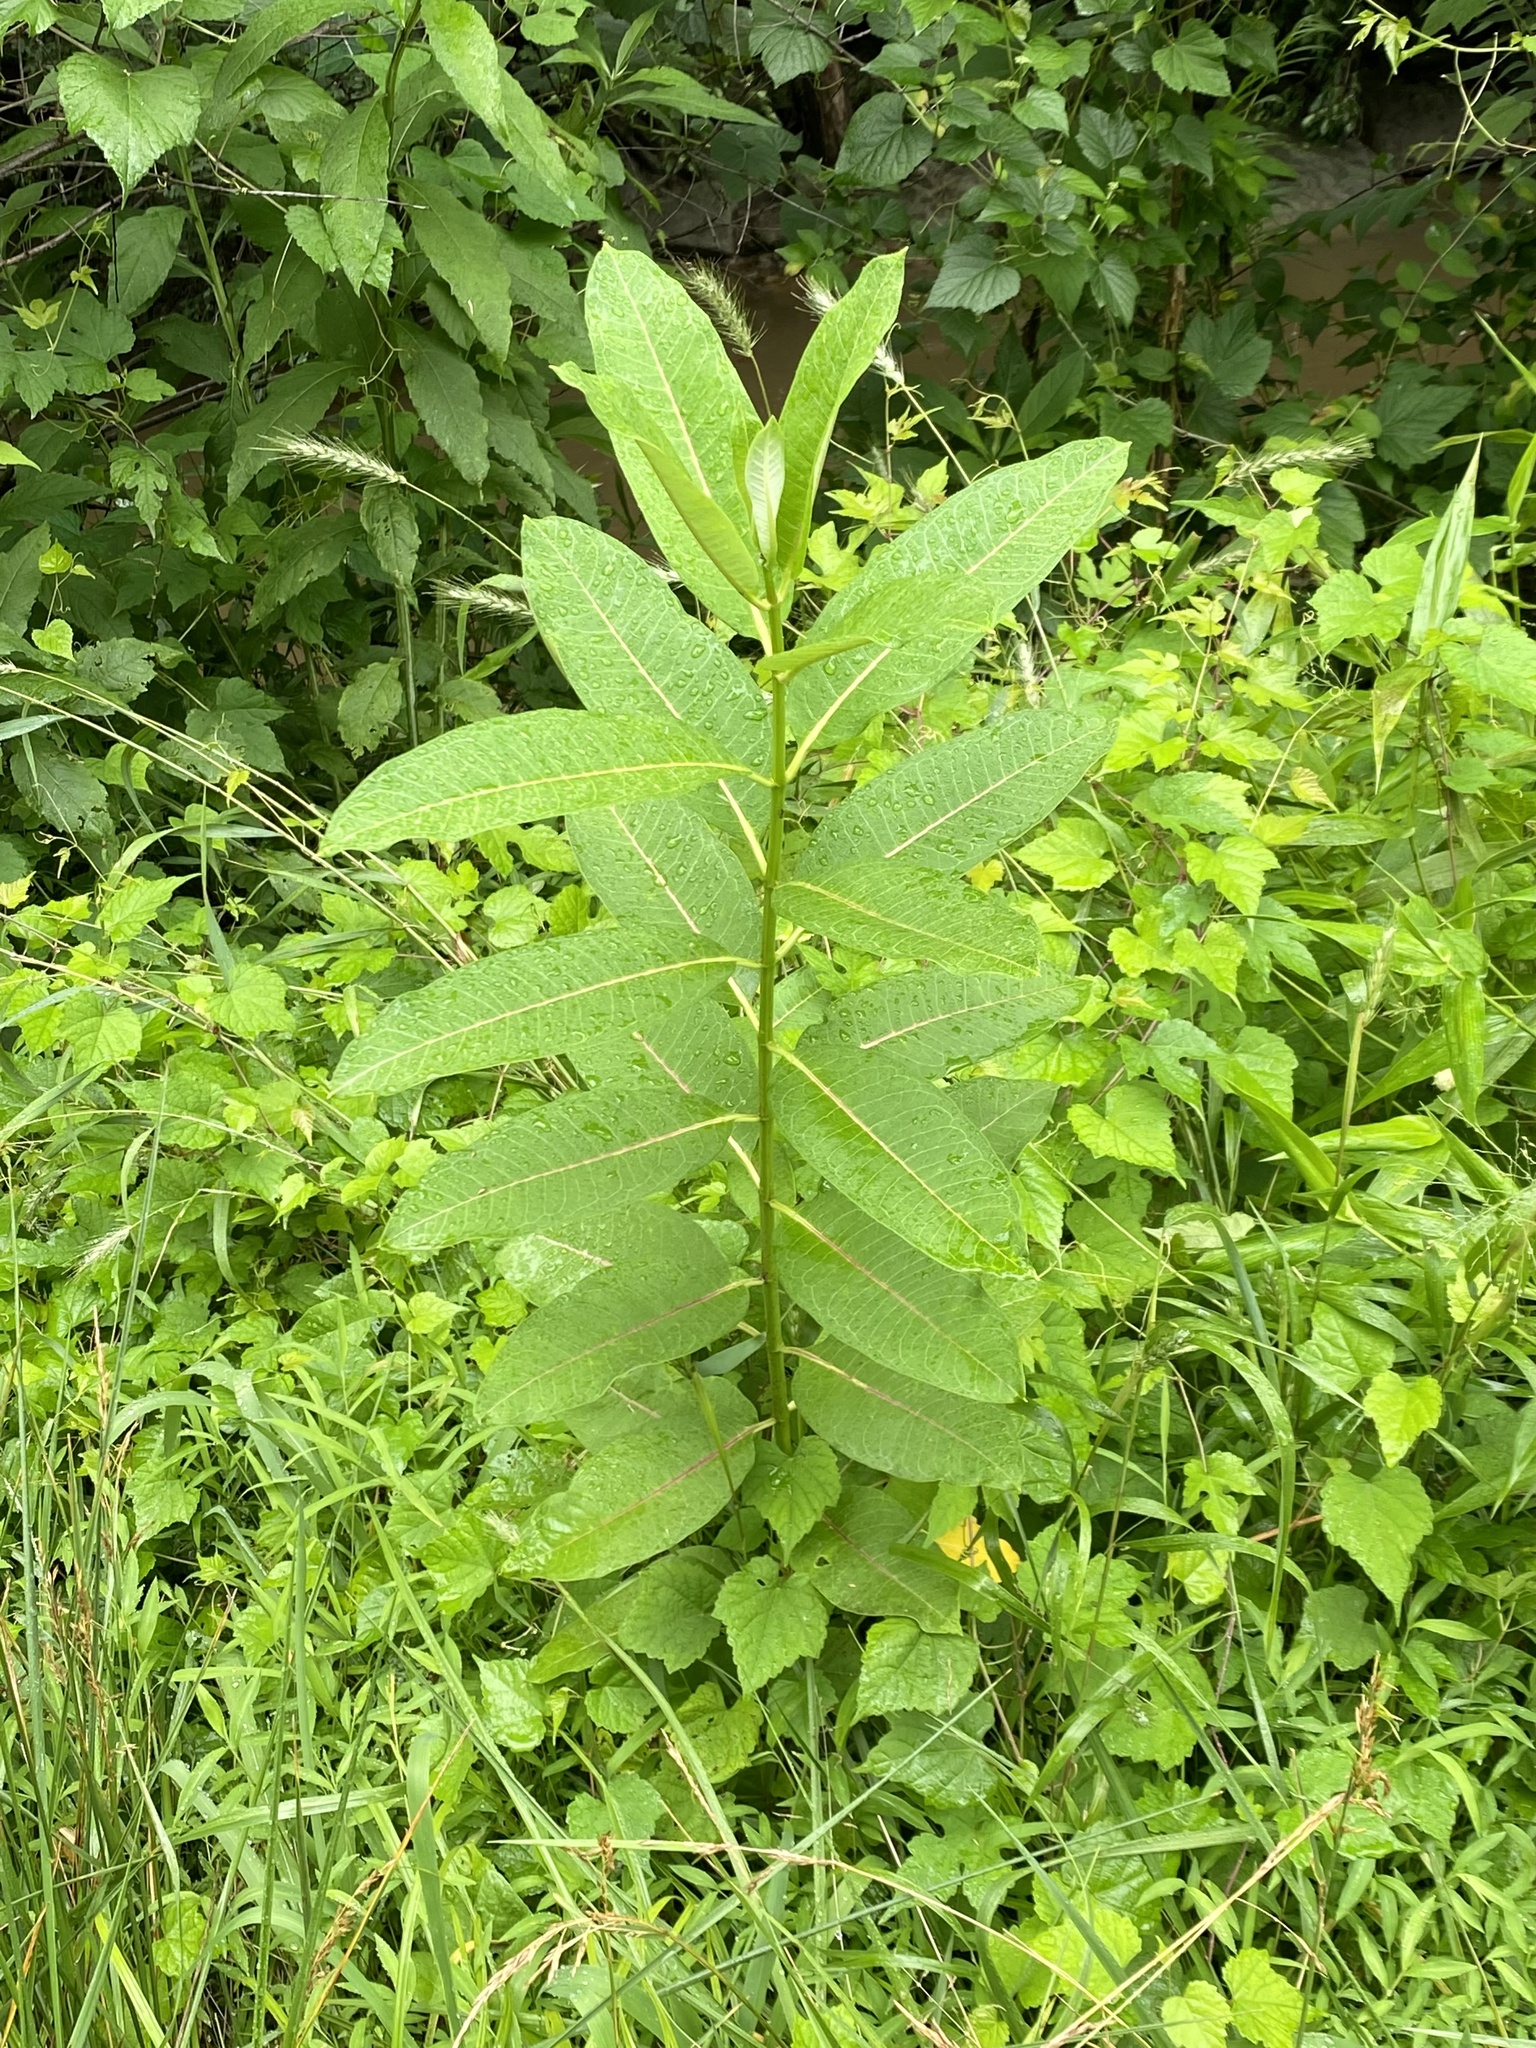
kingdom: Plantae
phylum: Tracheophyta
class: Magnoliopsida
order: Gentianales
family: Apocynaceae
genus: Asclepias
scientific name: Asclepias syriaca
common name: Common milkweed
